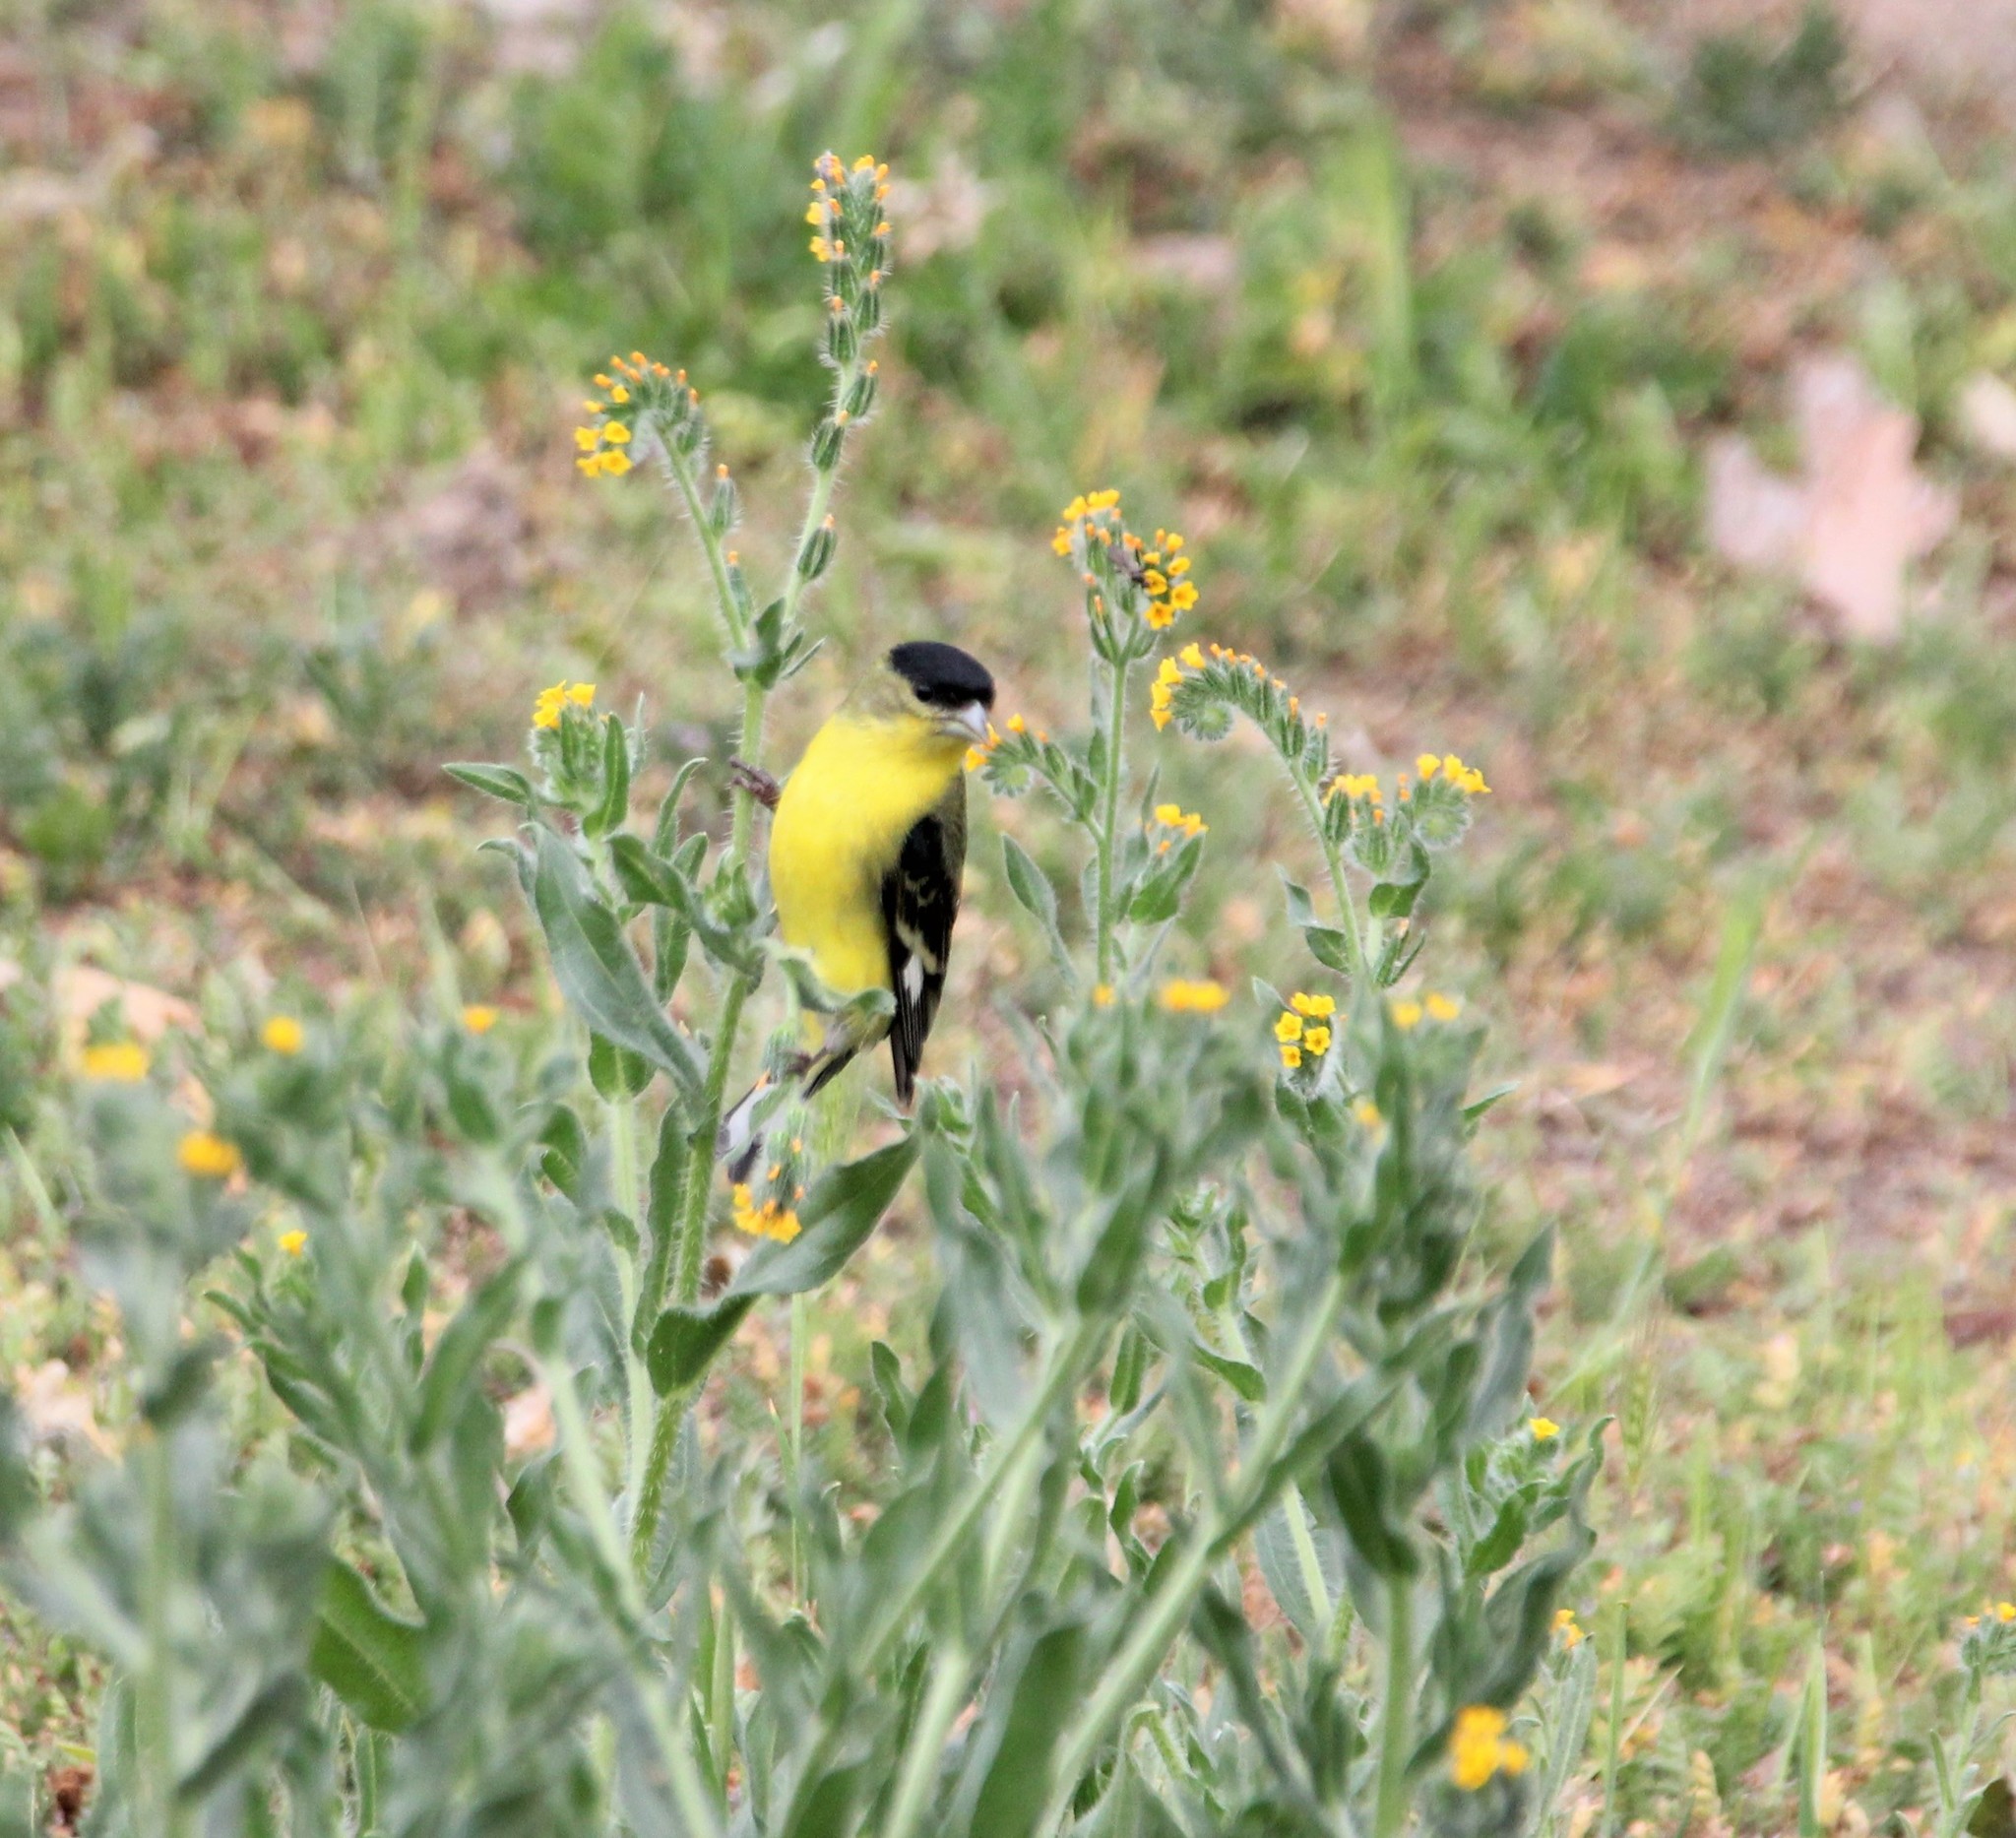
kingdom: Animalia
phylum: Chordata
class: Aves
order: Passeriformes
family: Fringillidae
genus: Spinus
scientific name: Spinus psaltria
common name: Lesser goldfinch
